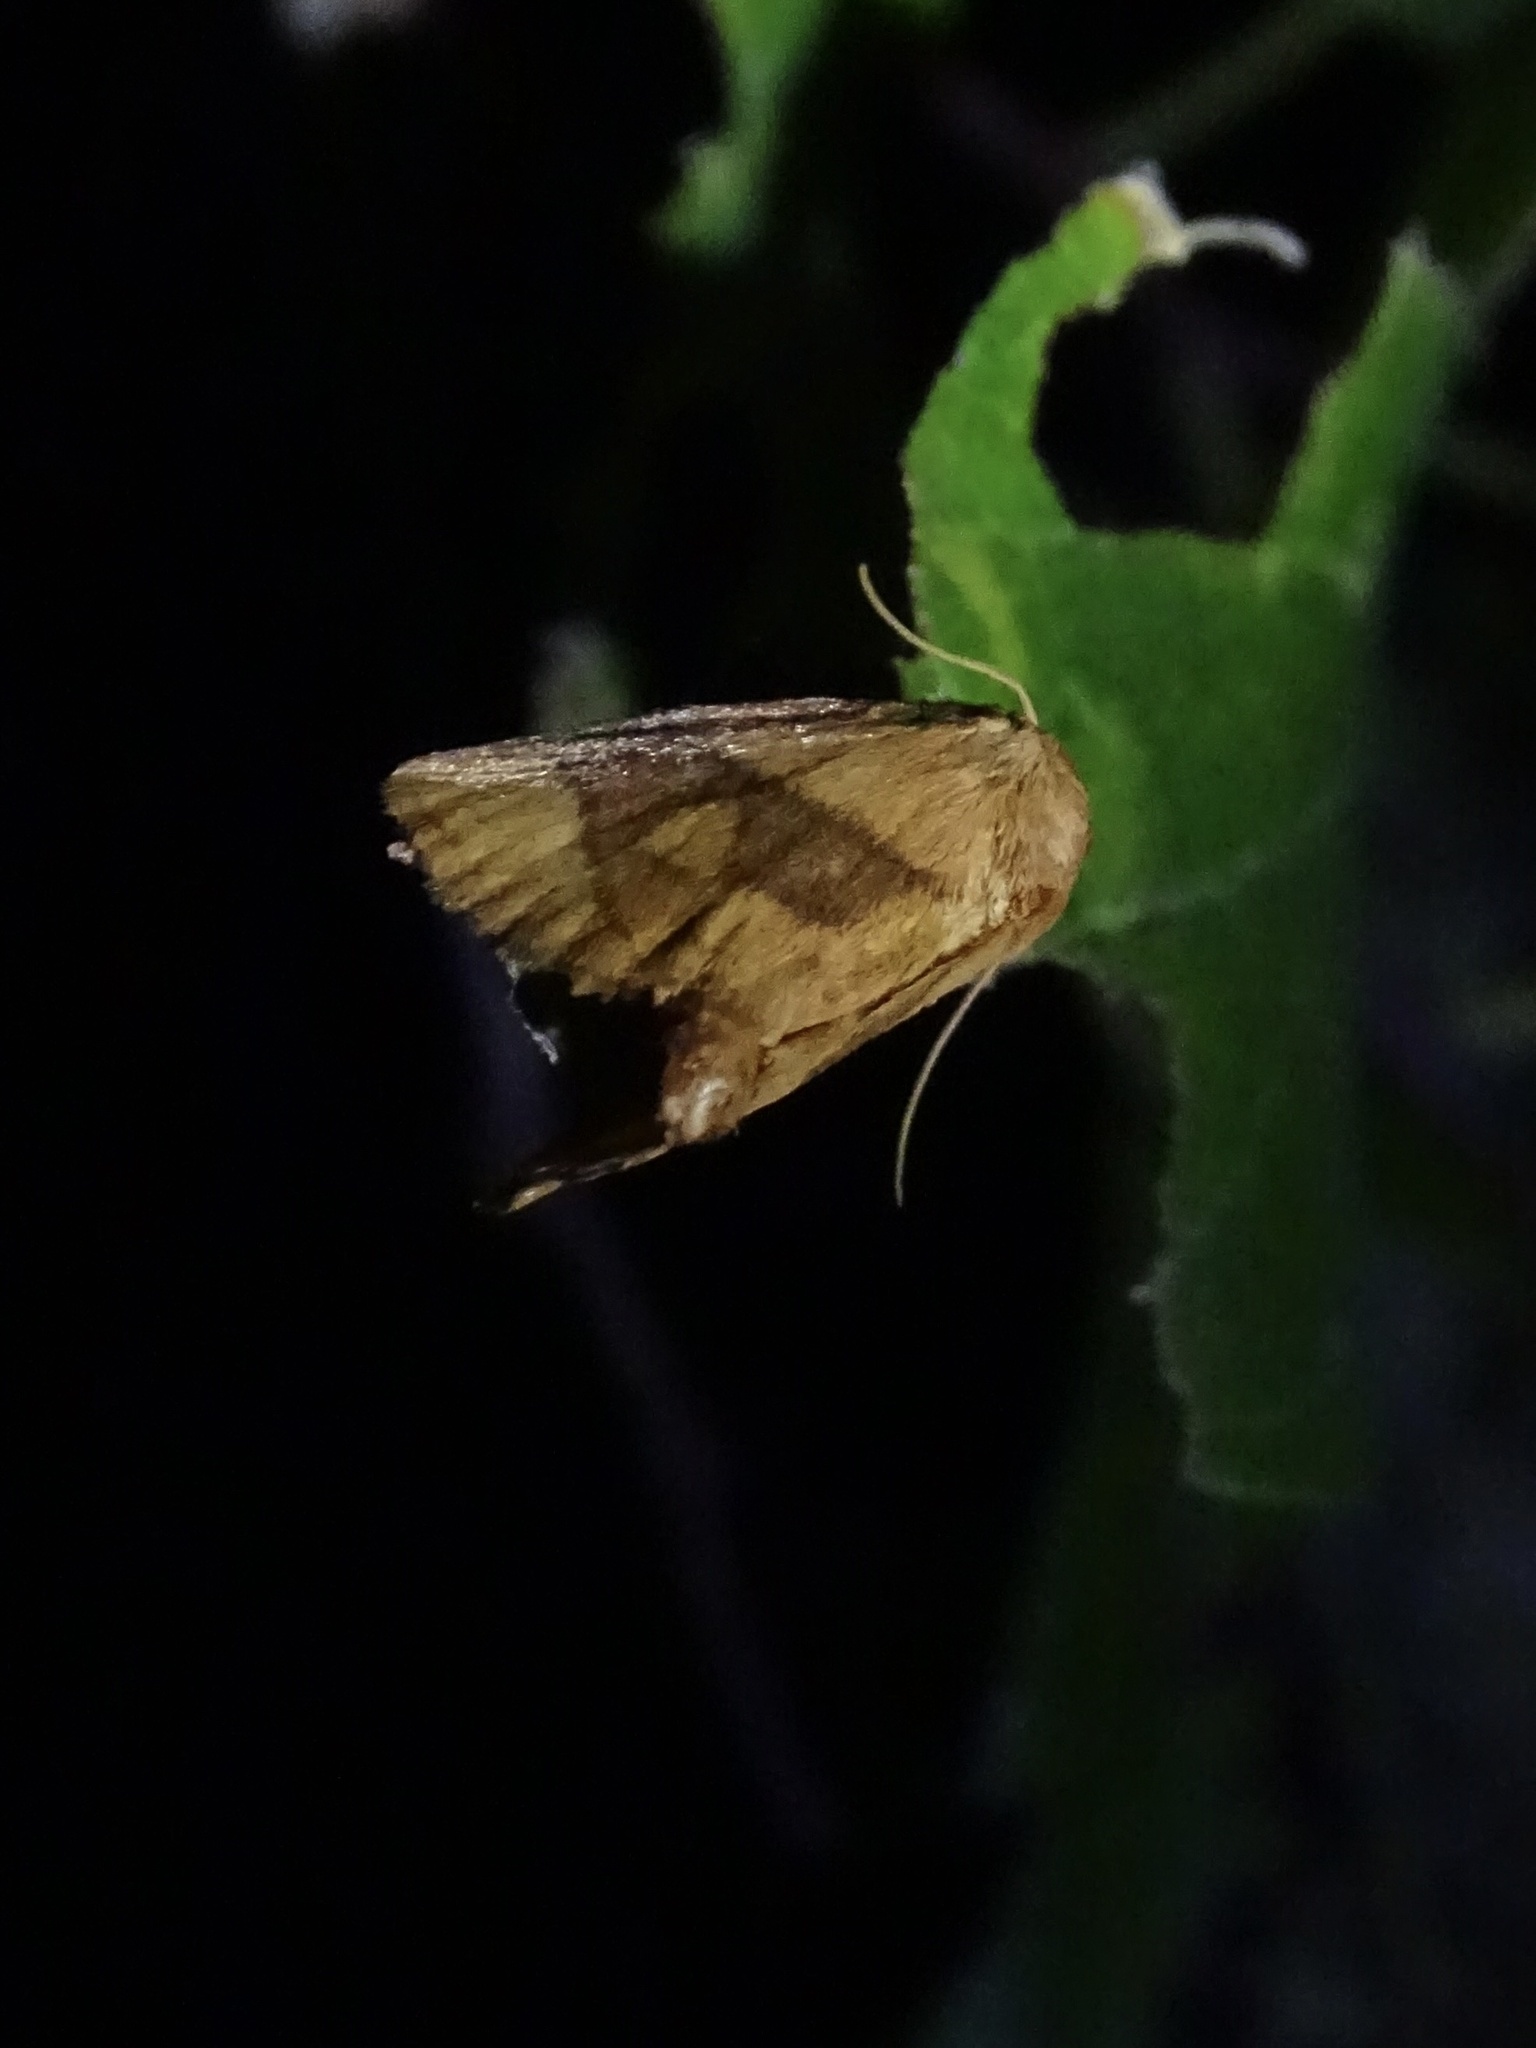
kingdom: Animalia
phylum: Arthropoda
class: Insecta
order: Lepidoptera
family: Limacodidae
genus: Apoda
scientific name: Apoda y-inversa
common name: Yellow-collared slug moth
